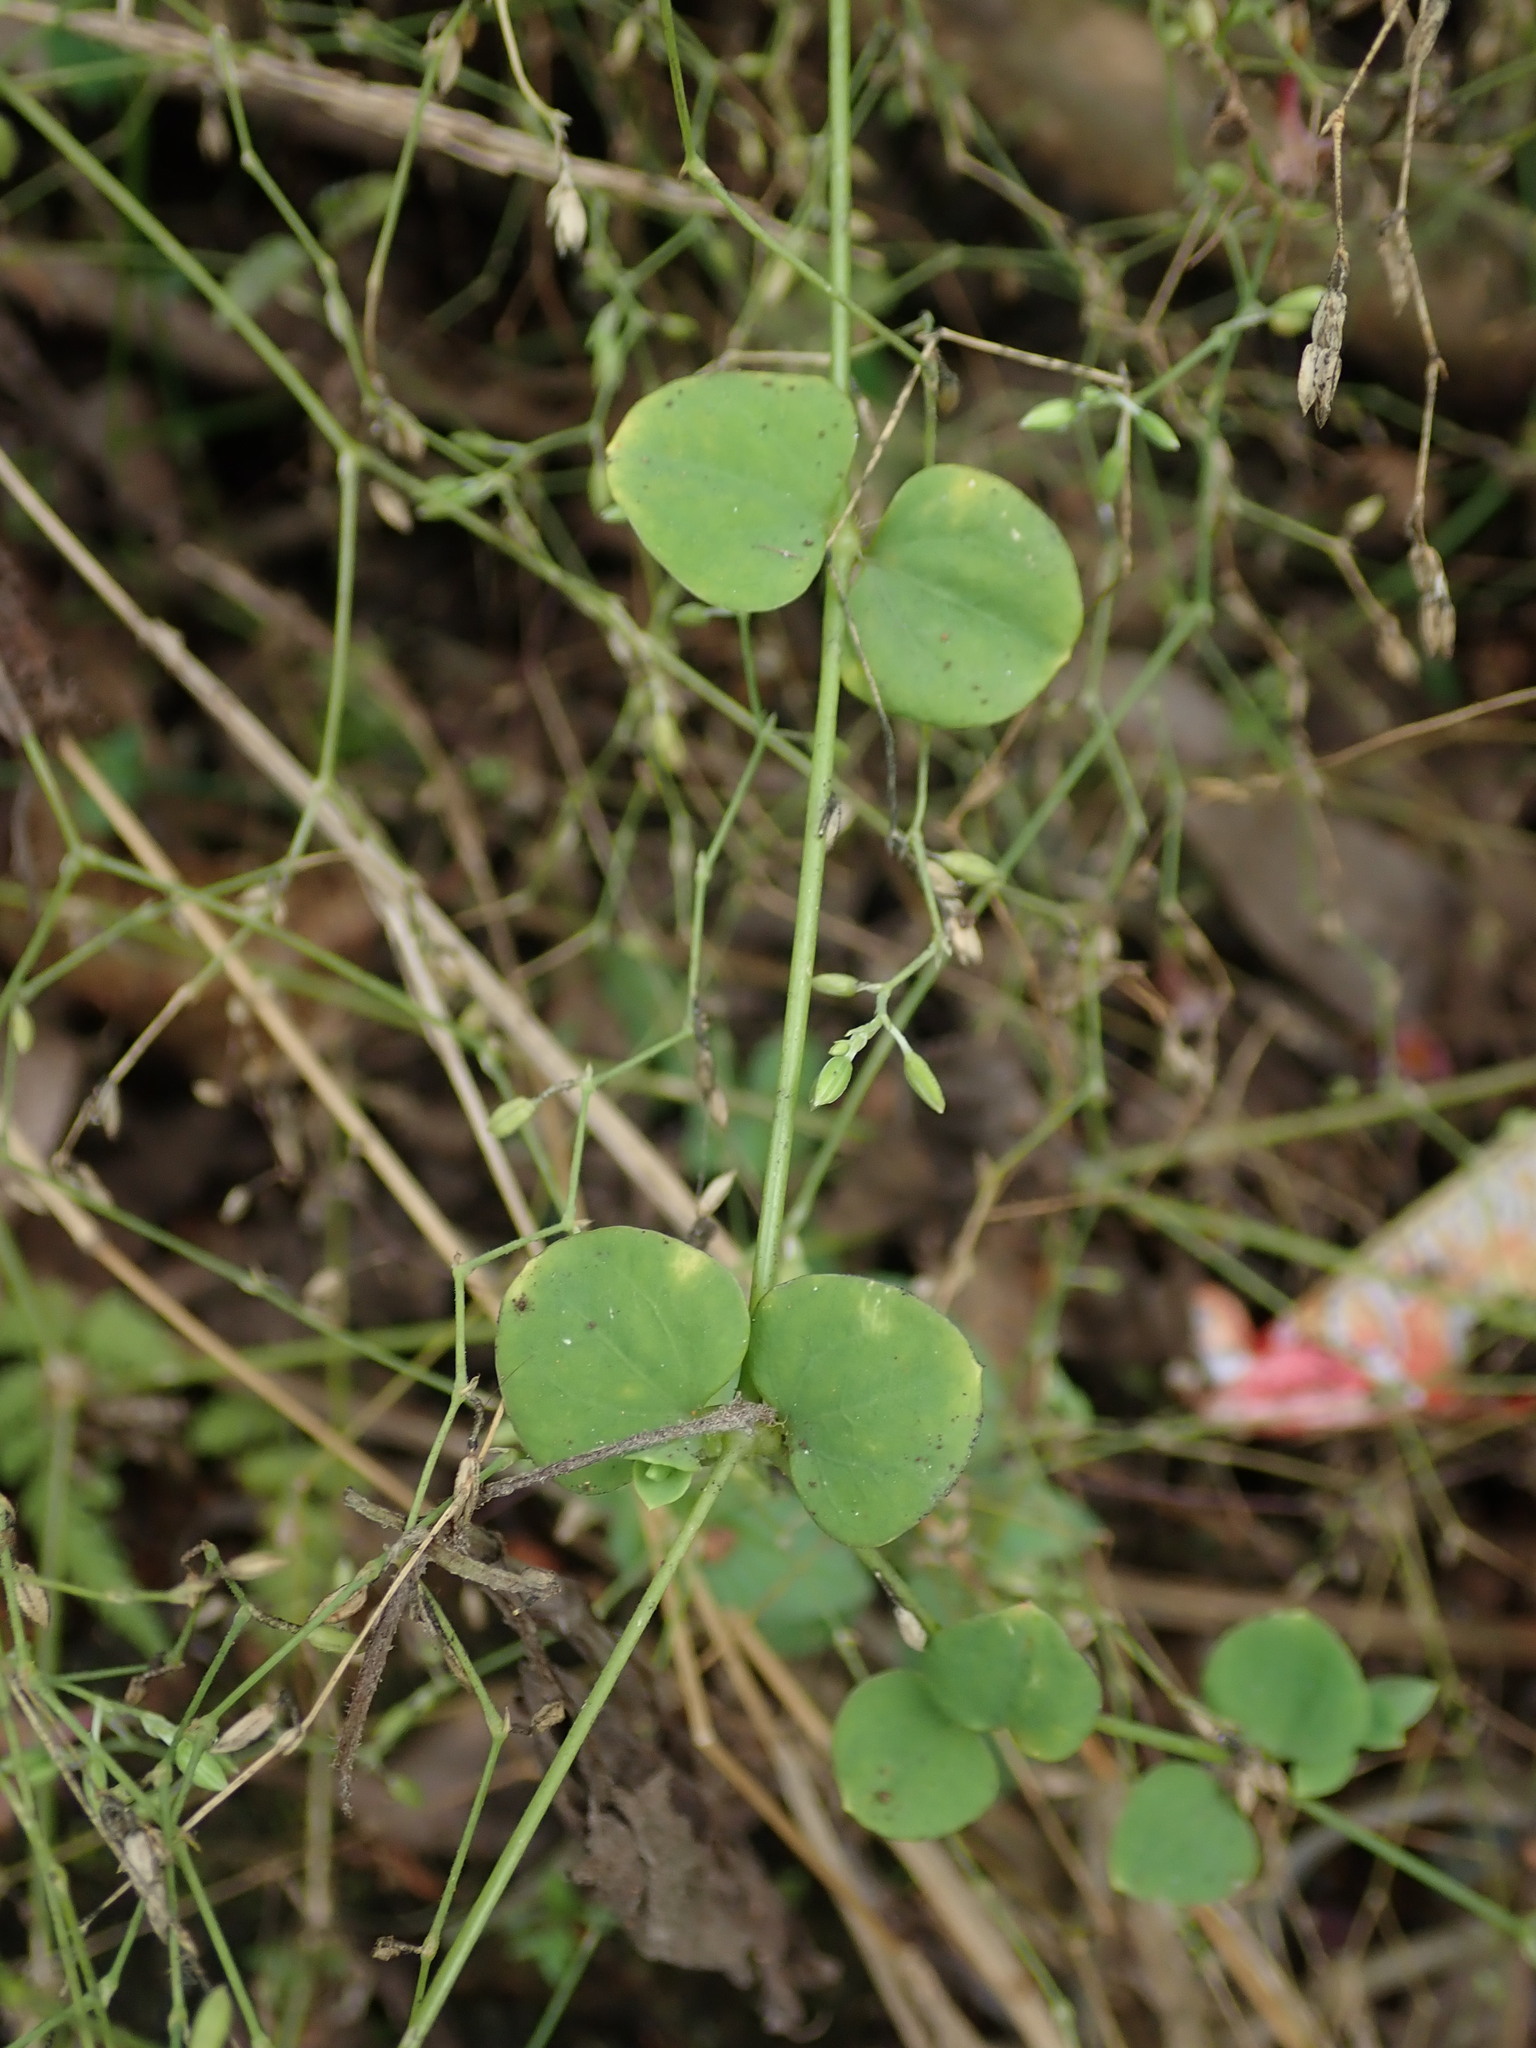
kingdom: Plantae
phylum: Tracheophyta
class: Magnoliopsida
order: Caryophyllales
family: Caryophyllaceae
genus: Drymaria
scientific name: Drymaria cordata
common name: Whitesnow
